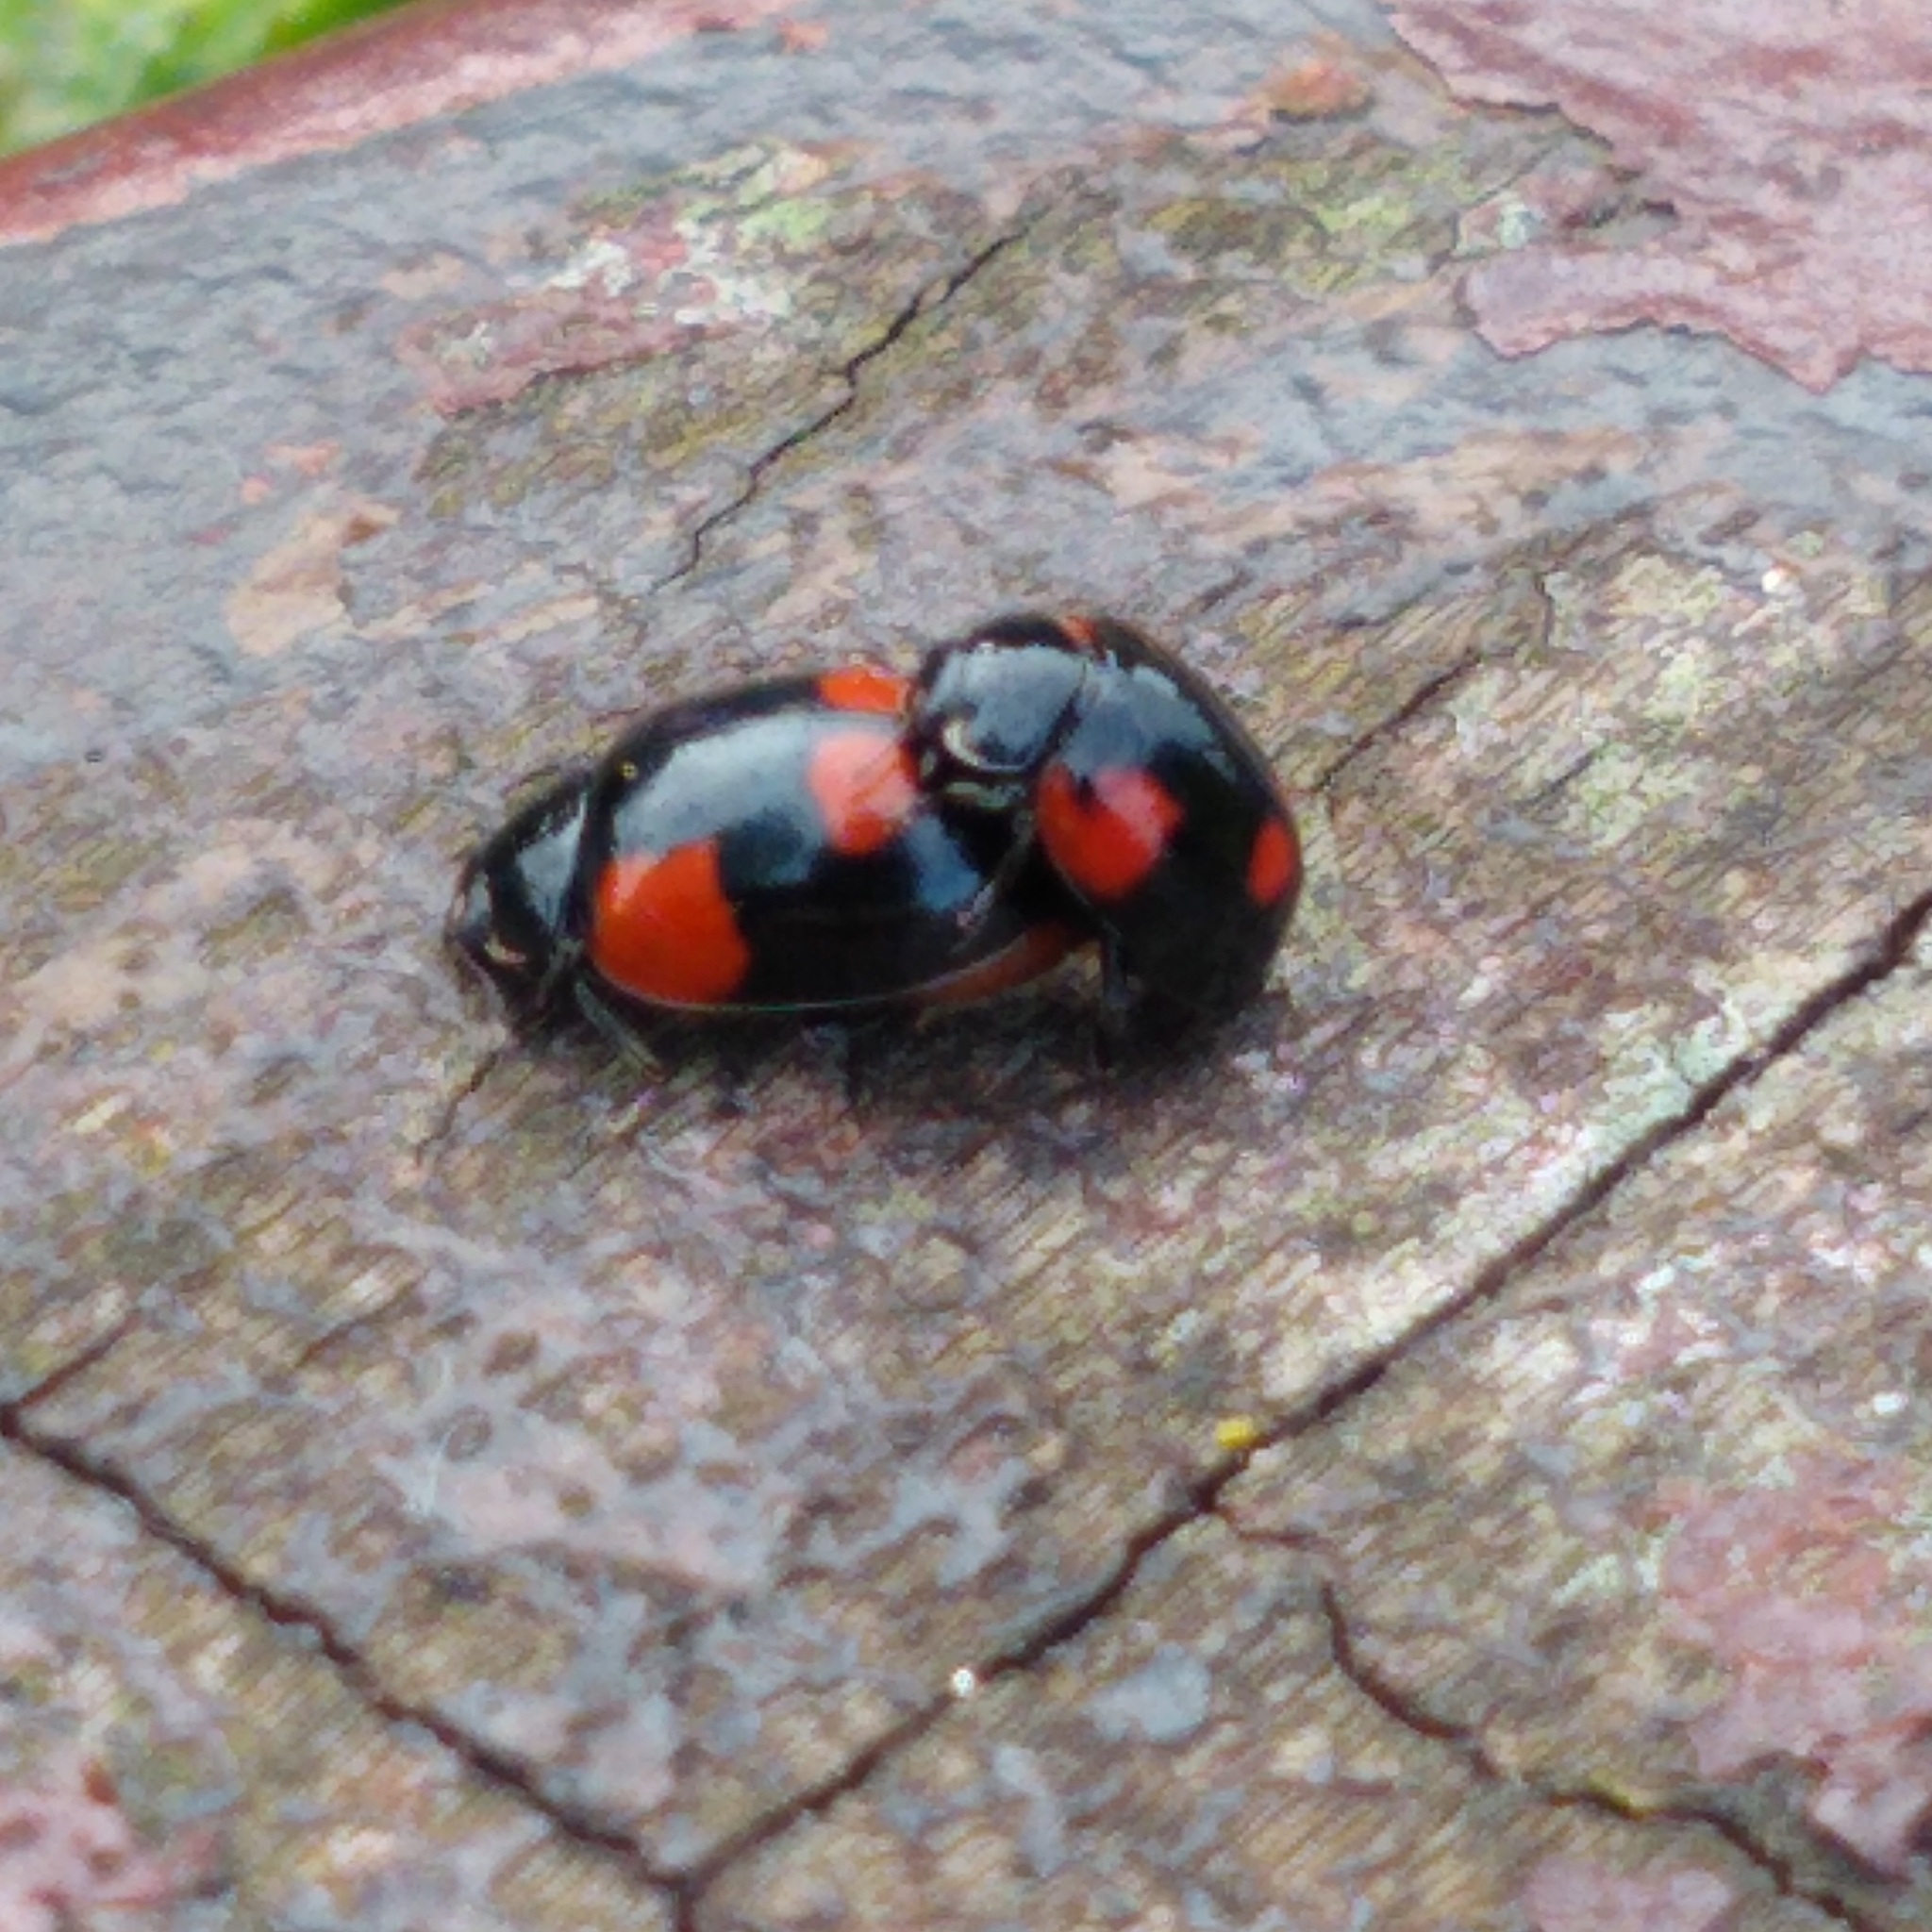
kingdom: Animalia
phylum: Arthropoda
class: Insecta
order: Coleoptera
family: Coccinellidae
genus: Adalia
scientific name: Adalia bipunctata
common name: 2-spot ladybird
